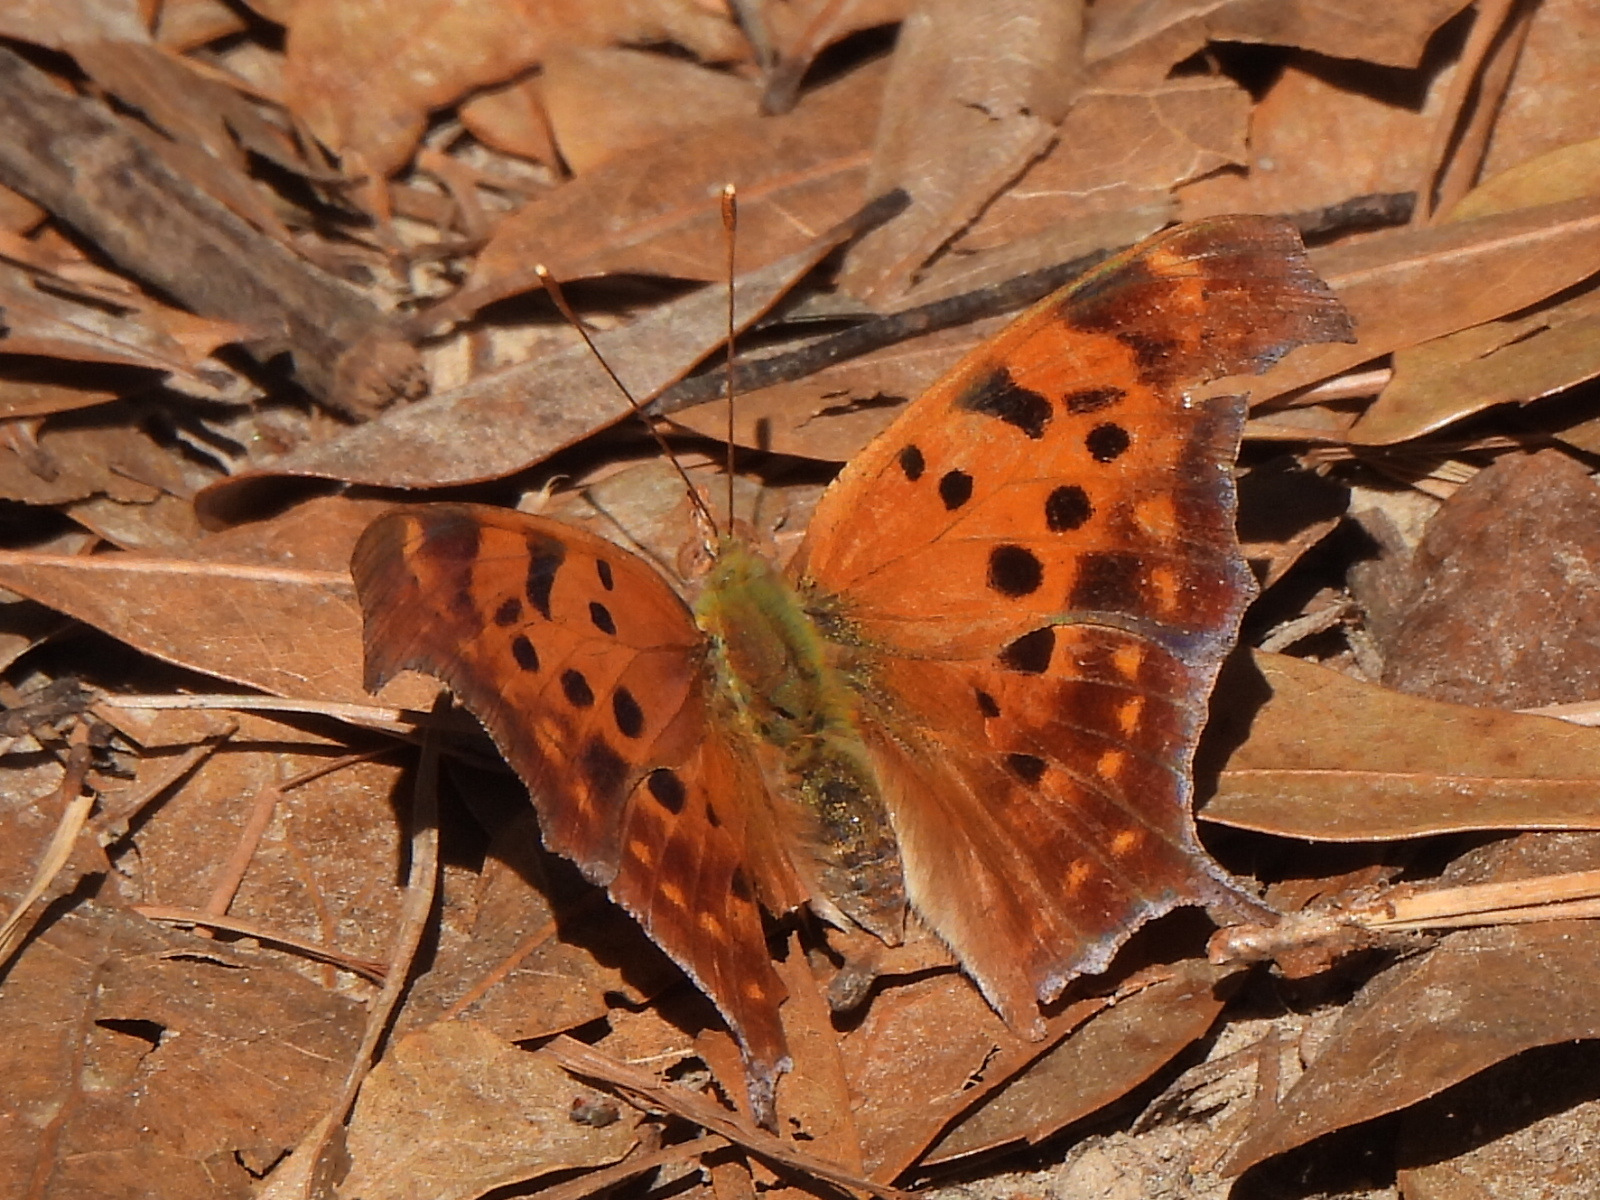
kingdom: Animalia
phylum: Arthropoda
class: Insecta
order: Lepidoptera
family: Nymphalidae
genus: Polygonia
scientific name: Polygonia interrogationis
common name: Question mark
